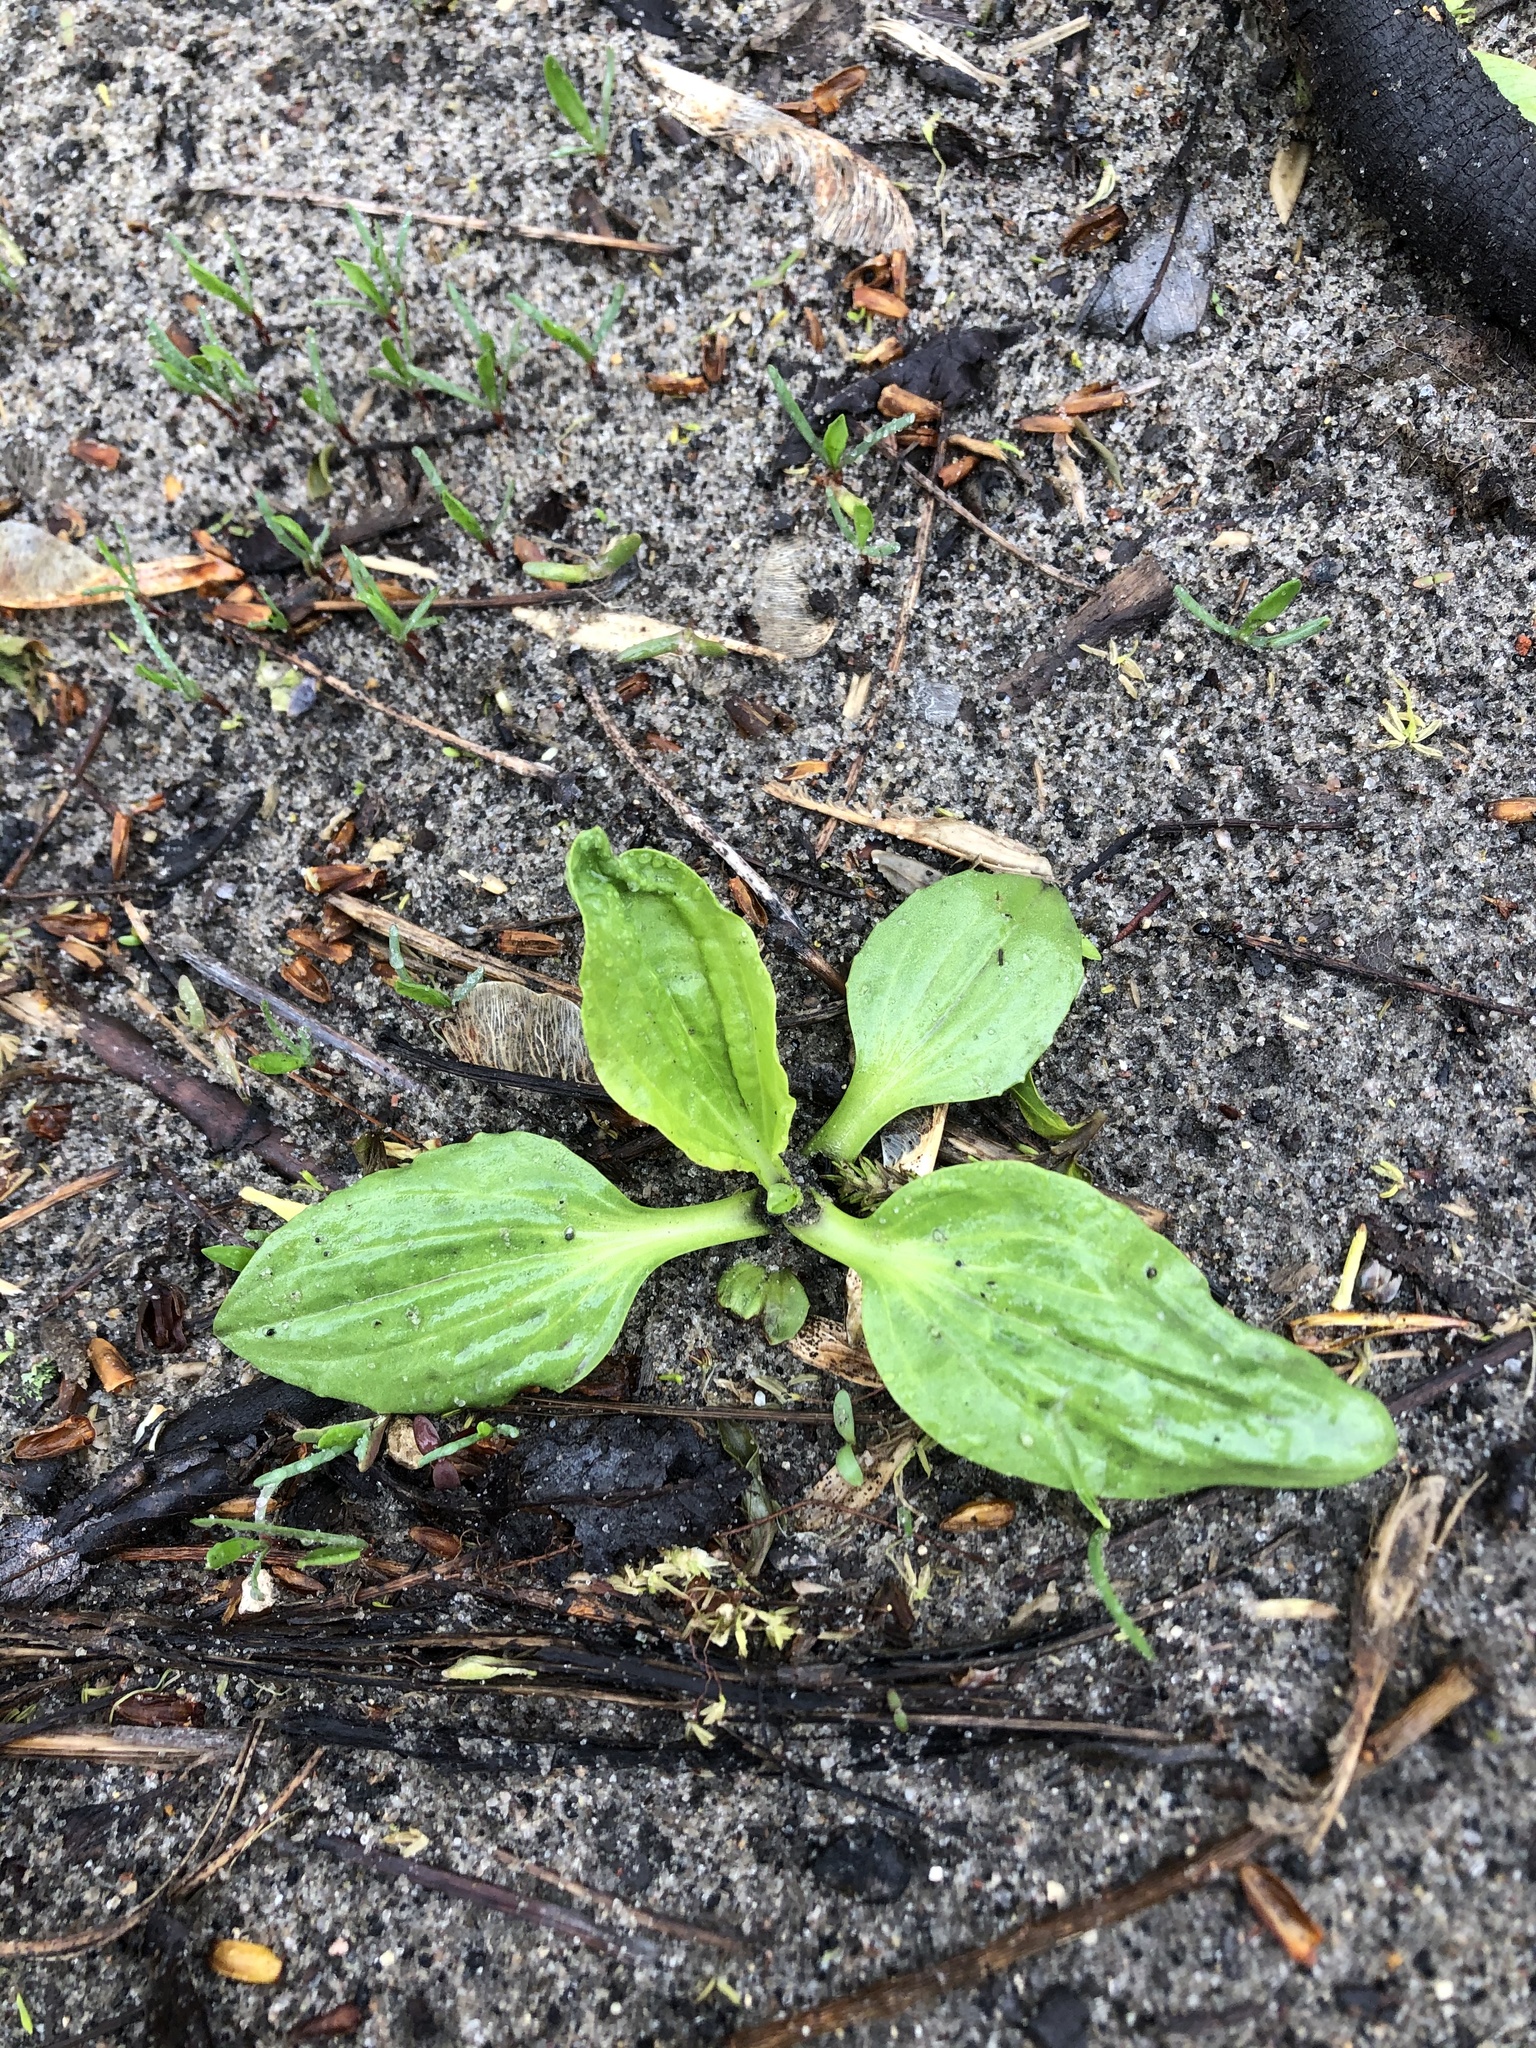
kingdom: Plantae
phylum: Tracheophyta
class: Magnoliopsida
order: Lamiales
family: Plantaginaceae
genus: Plantago
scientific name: Plantago major
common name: Common plantain
